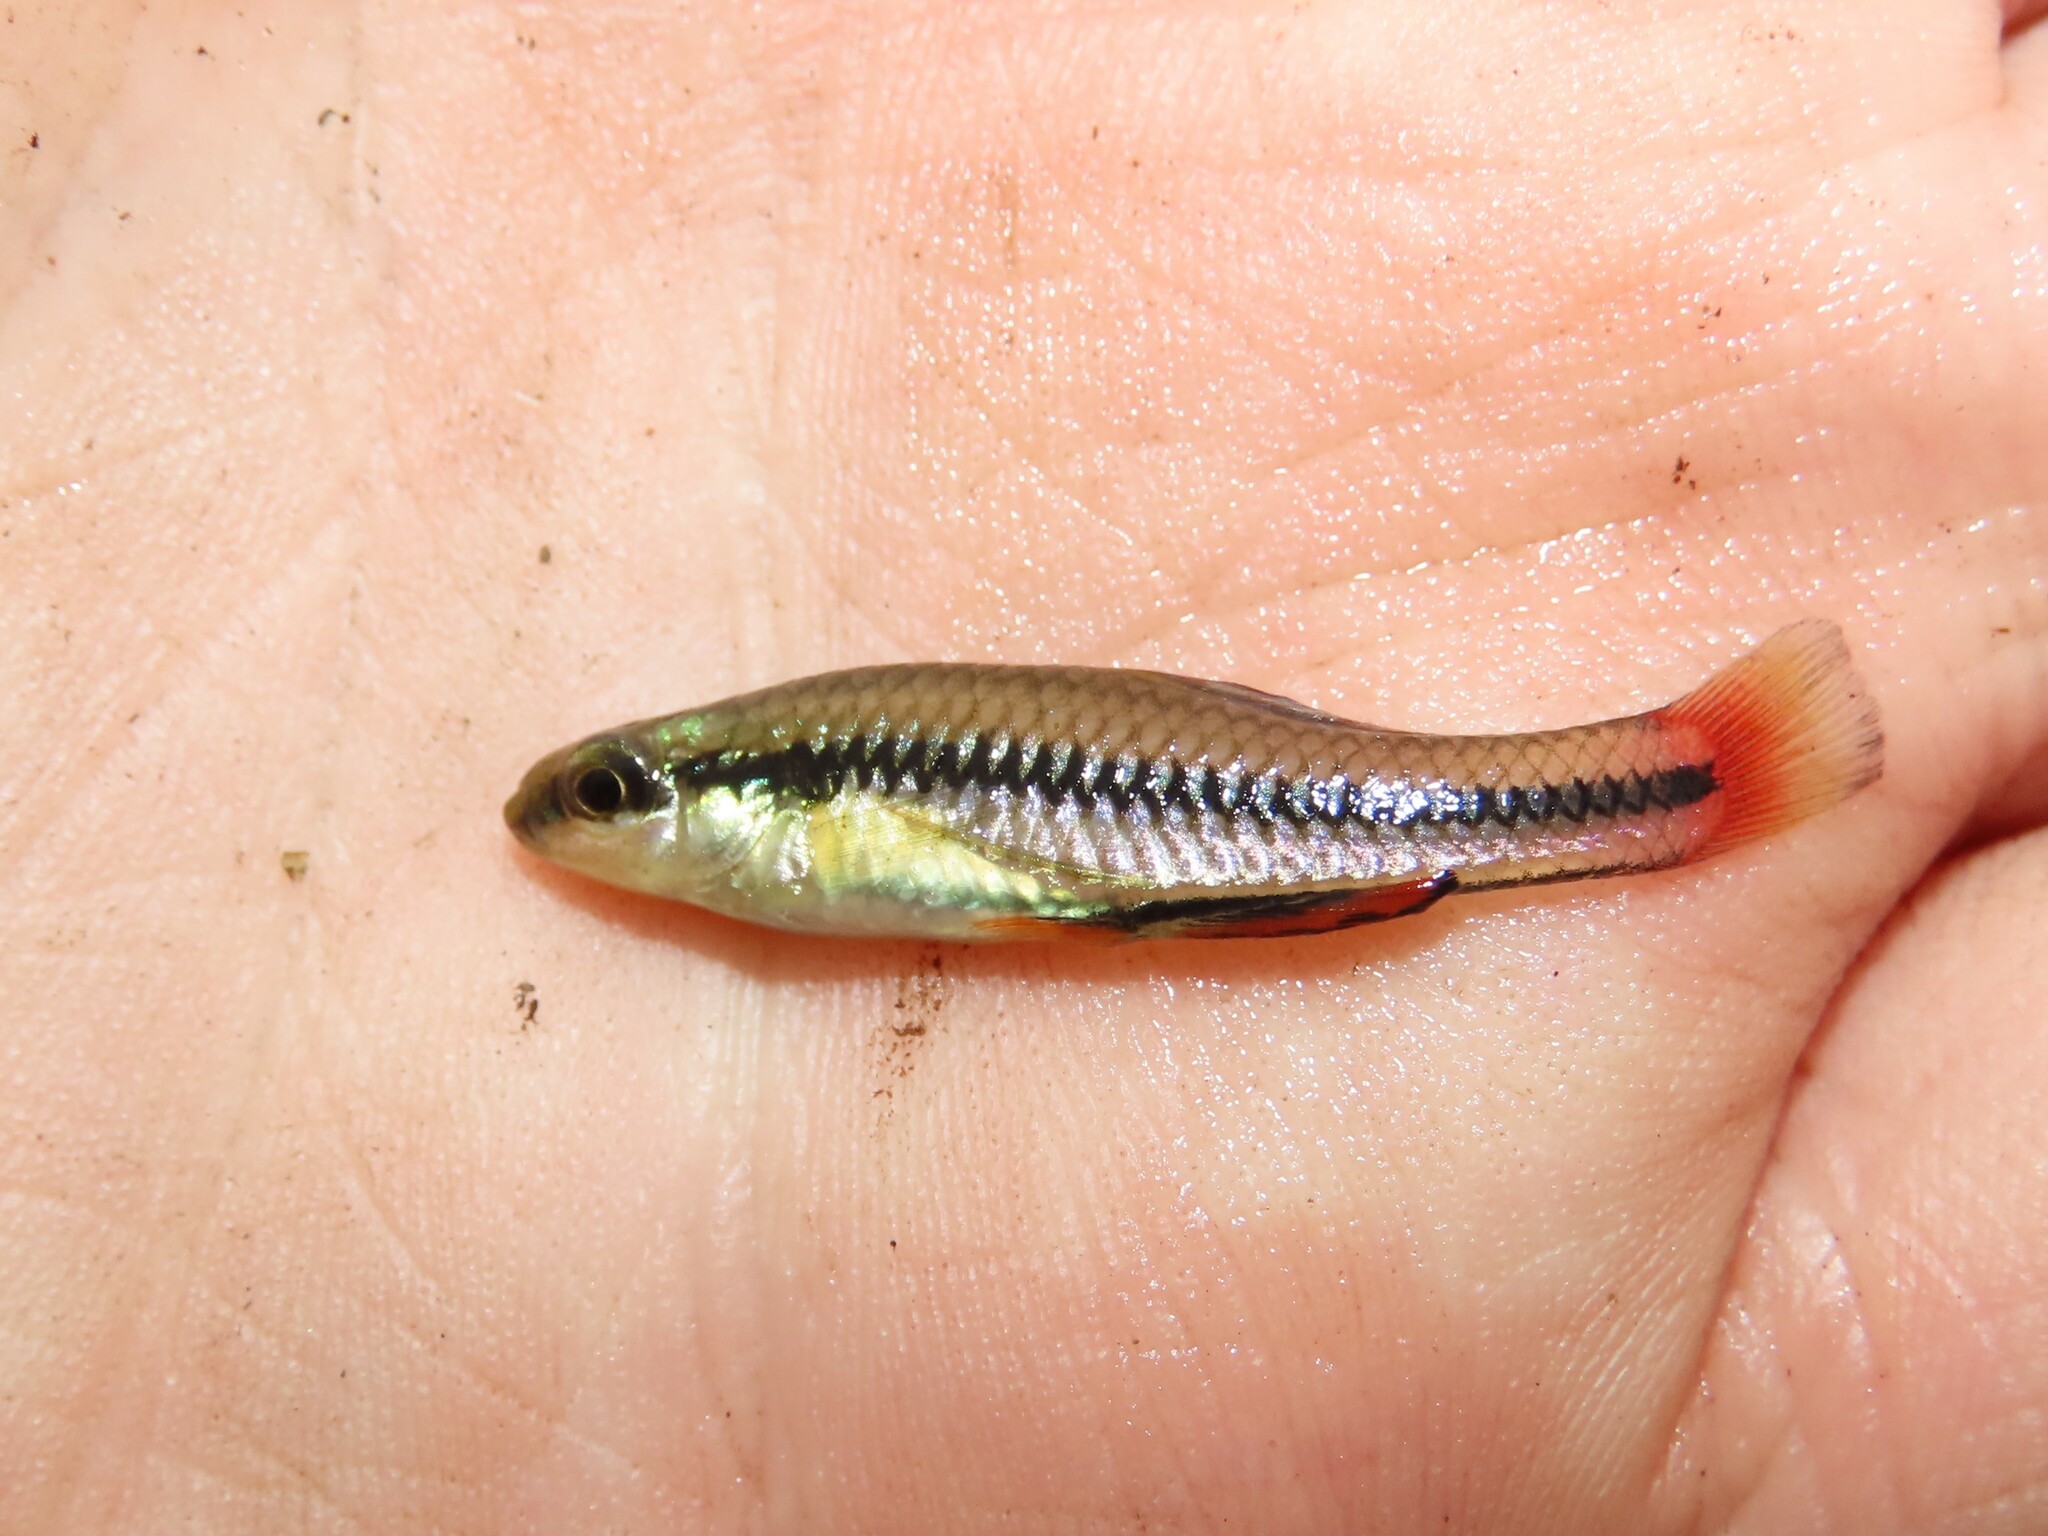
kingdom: Animalia
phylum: Chordata
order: Cyprinodontiformes
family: Fundulidae
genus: Lucania
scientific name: Lucania goodei
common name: Bluefin killifish
